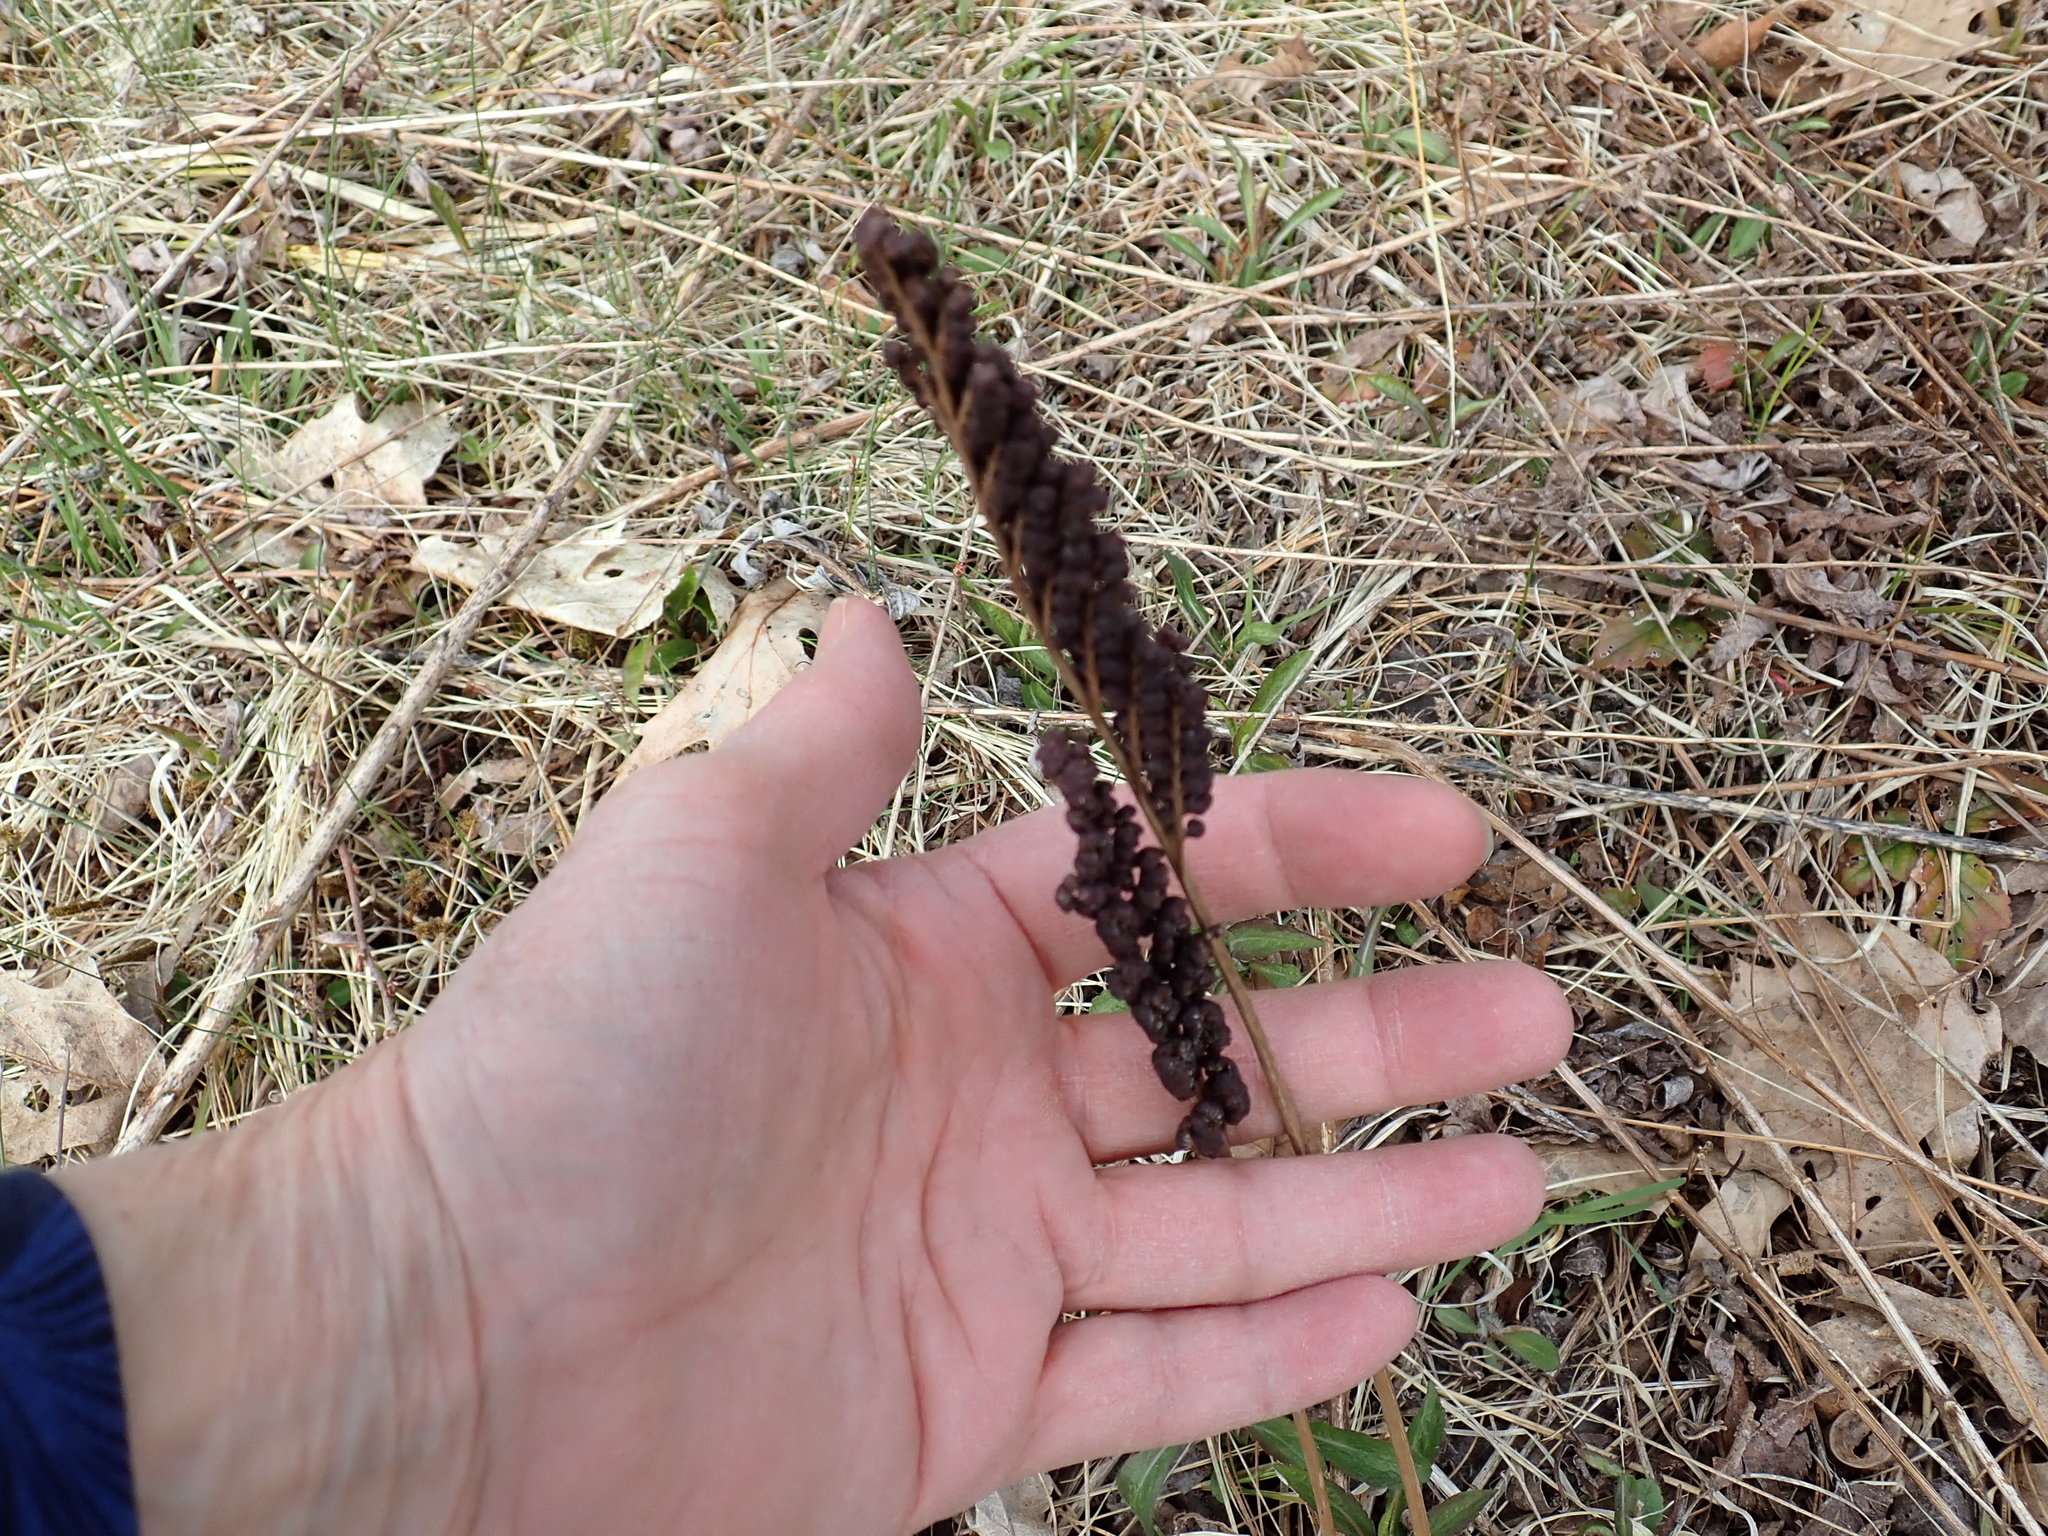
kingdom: Plantae
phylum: Tracheophyta
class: Polypodiopsida
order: Polypodiales
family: Onocleaceae
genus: Onoclea
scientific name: Onoclea sensibilis
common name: Sensitive fern
